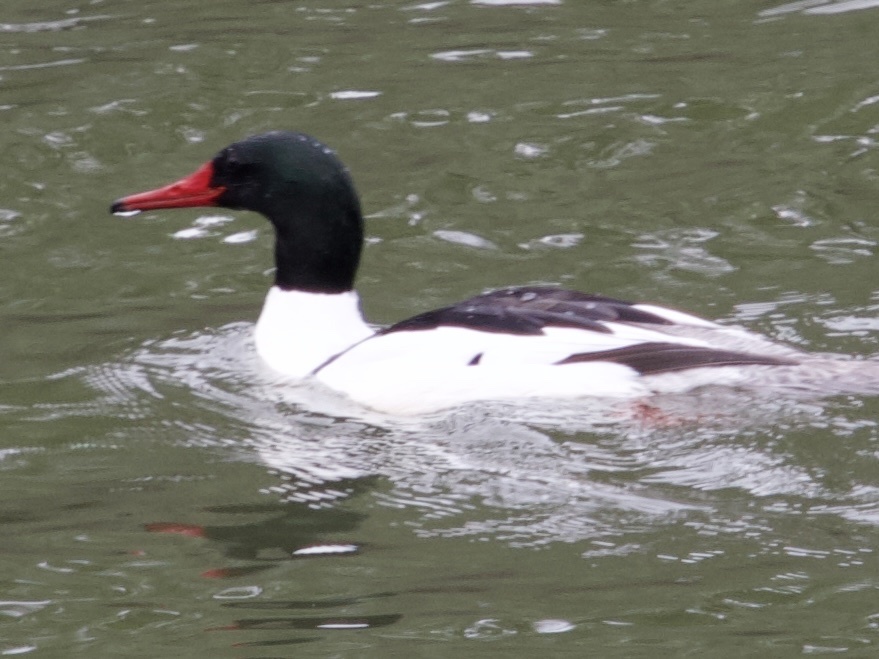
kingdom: Animalia
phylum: Chordata
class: Aves
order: Anseriformes
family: Anatidae
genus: Mergus
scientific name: Mergus merganser
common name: Common merganser
